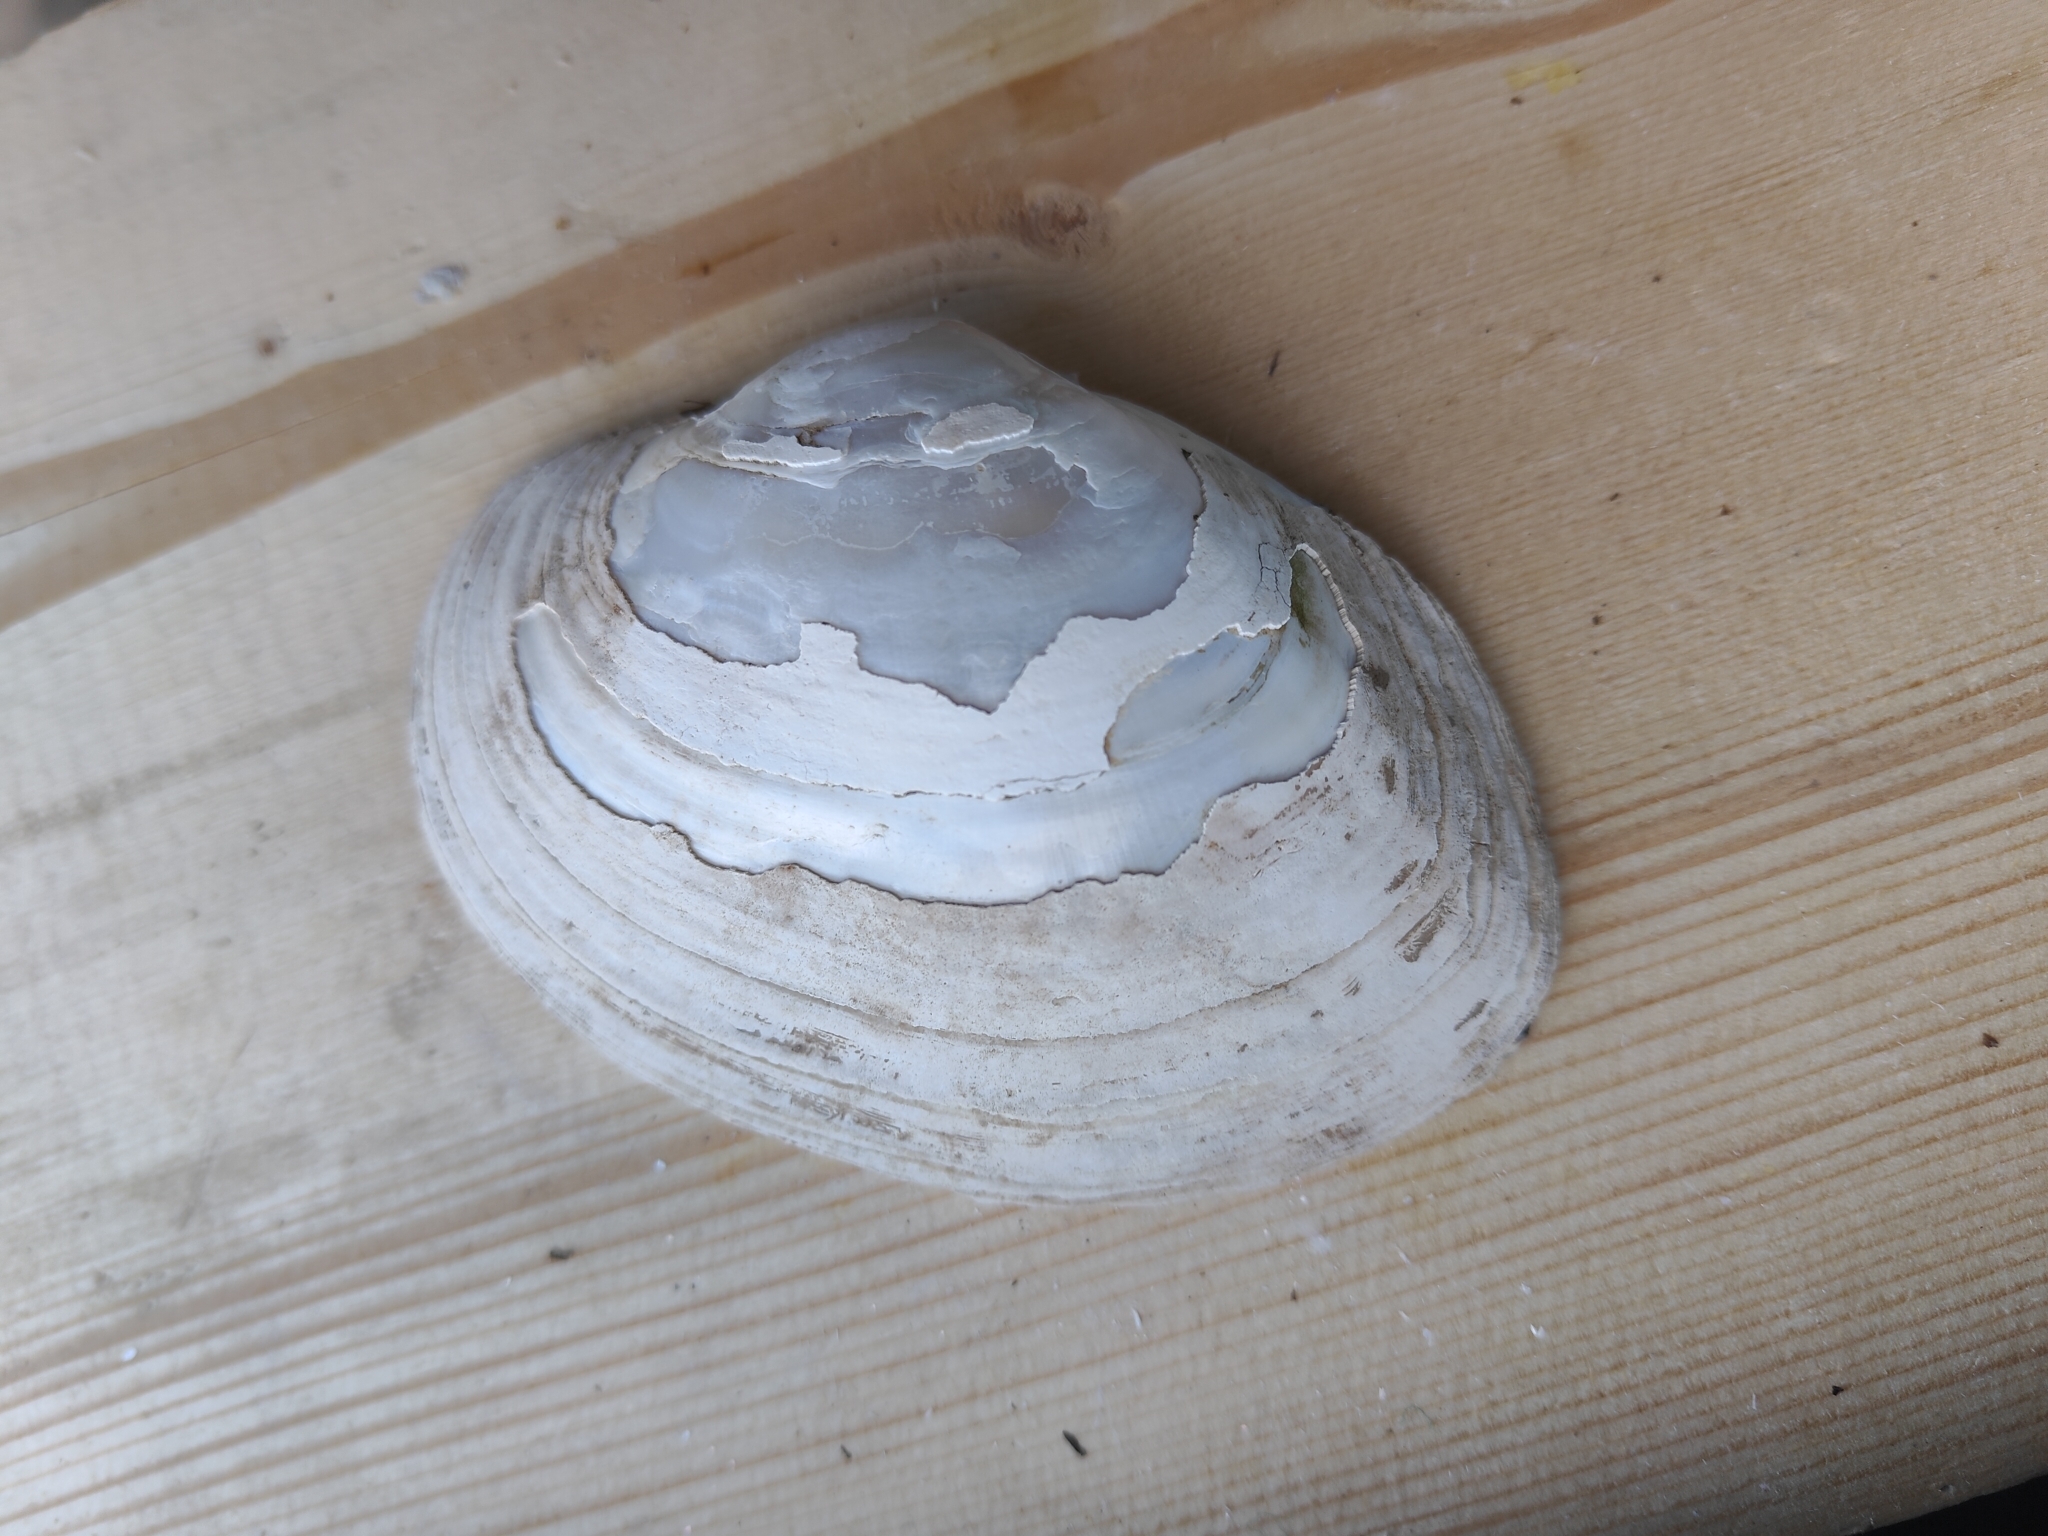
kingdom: Animalia
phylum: Mollusca
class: Bivalvia
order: Unionida
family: Unionidae
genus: Lampsilis
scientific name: Lampsilis cardium
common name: Plain pocketbook
